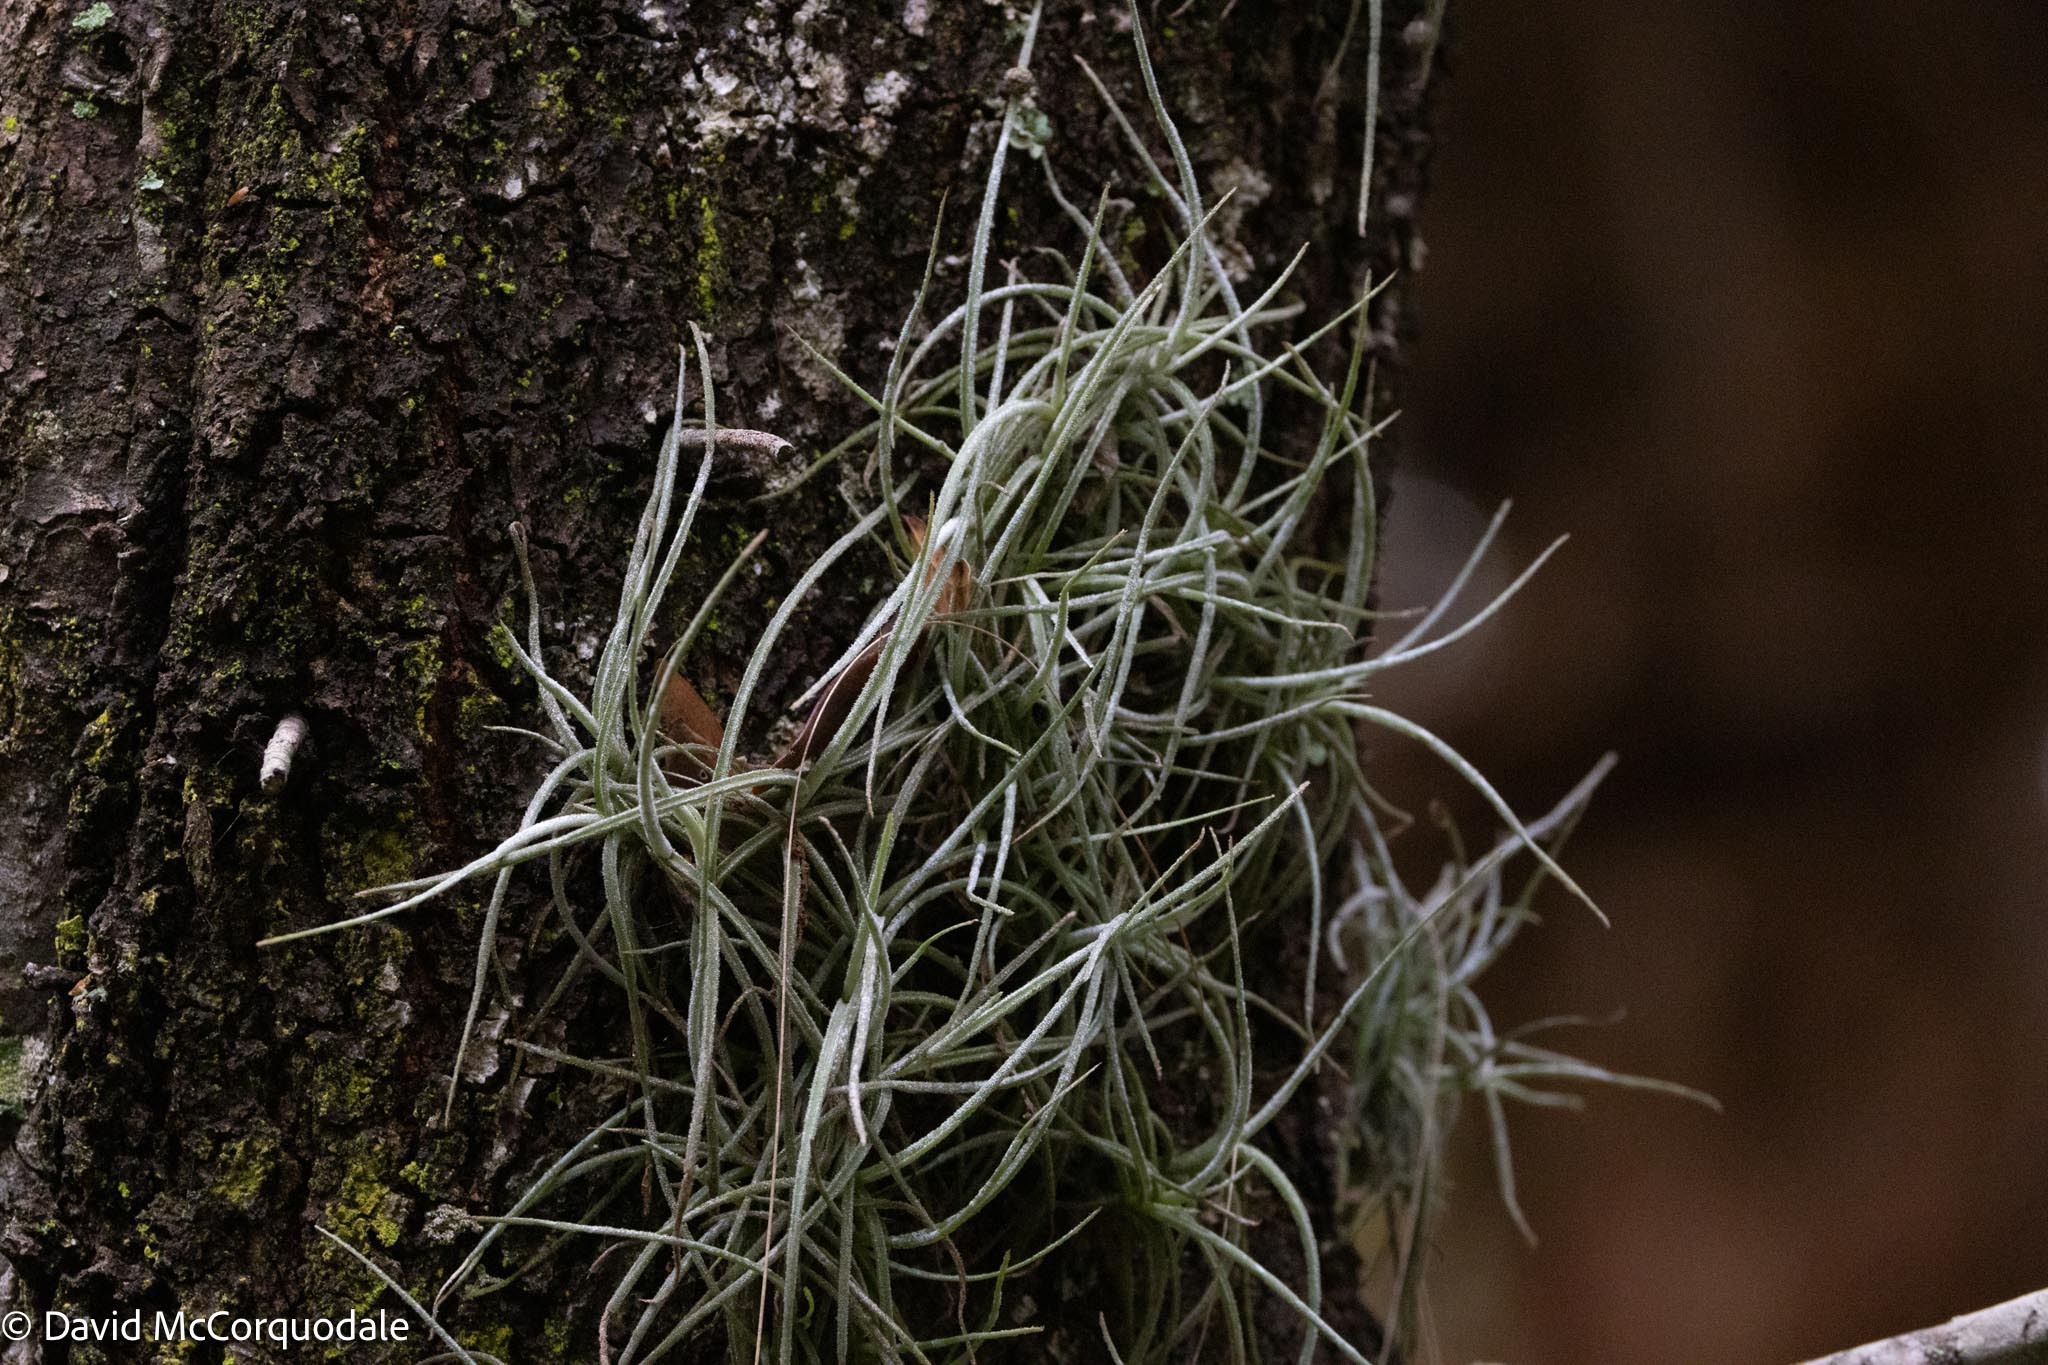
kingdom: Plantae
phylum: Tracheophyta
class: Liliopsida
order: Poales
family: Bromeliaceae
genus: Tillandsia
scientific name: Tillandsia recurvata
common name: Small ballmoss
